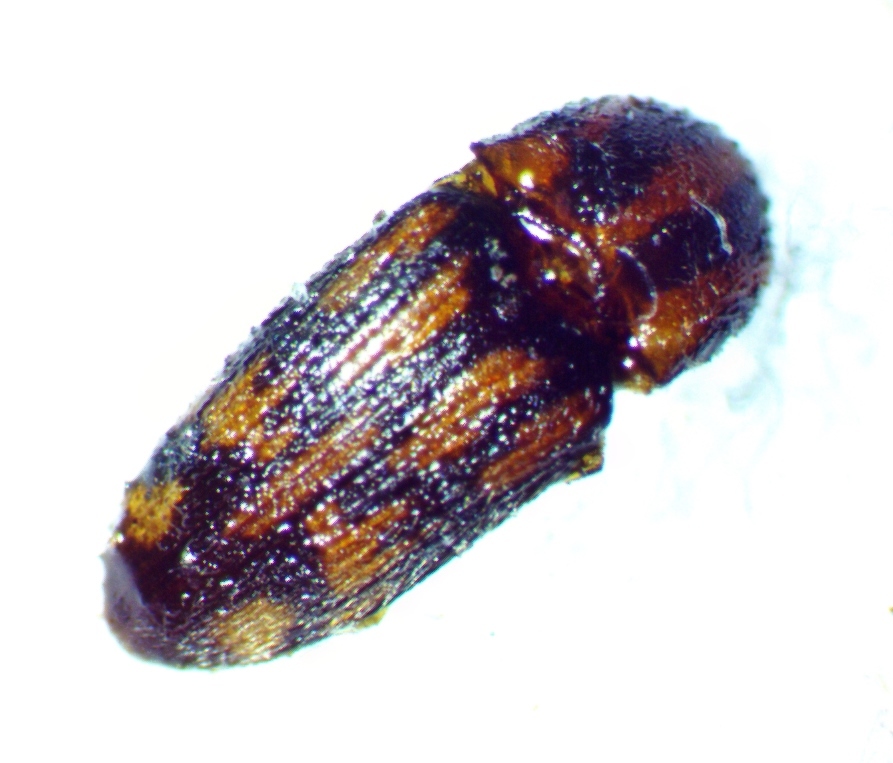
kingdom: Animalia
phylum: Arthropoda
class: Insecta
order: Coleoptera
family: Elateridae
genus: Monocrepidius
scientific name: Monocrepidius bellus
